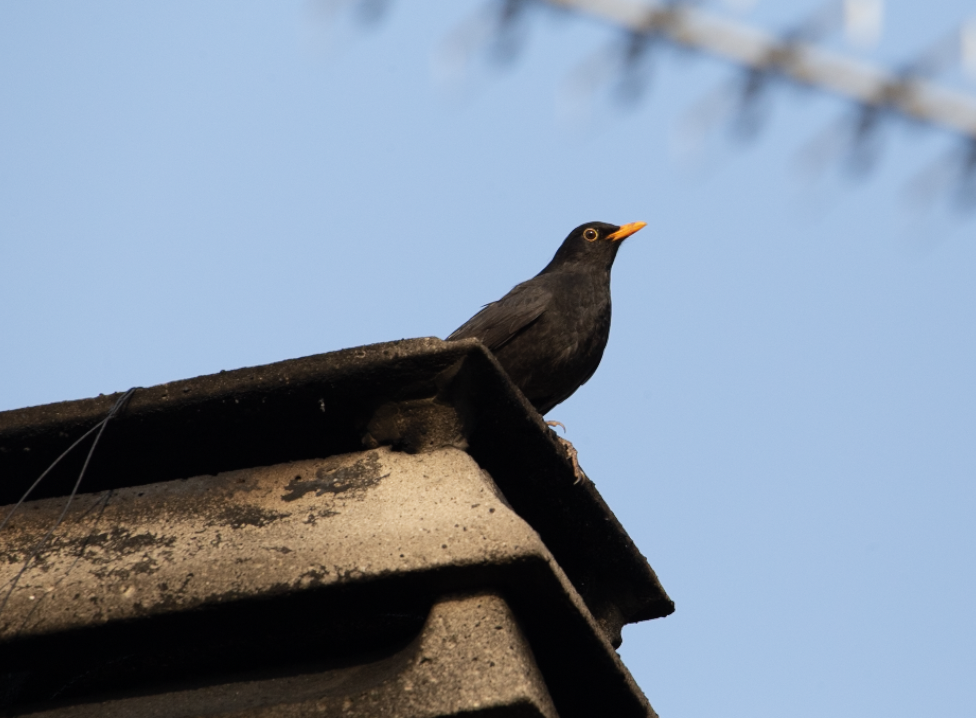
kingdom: Animalia
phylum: Chordata
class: Aves
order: Passeriformes
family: Turdidae
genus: Turdus
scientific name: Turdus merula
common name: Common blackbird
